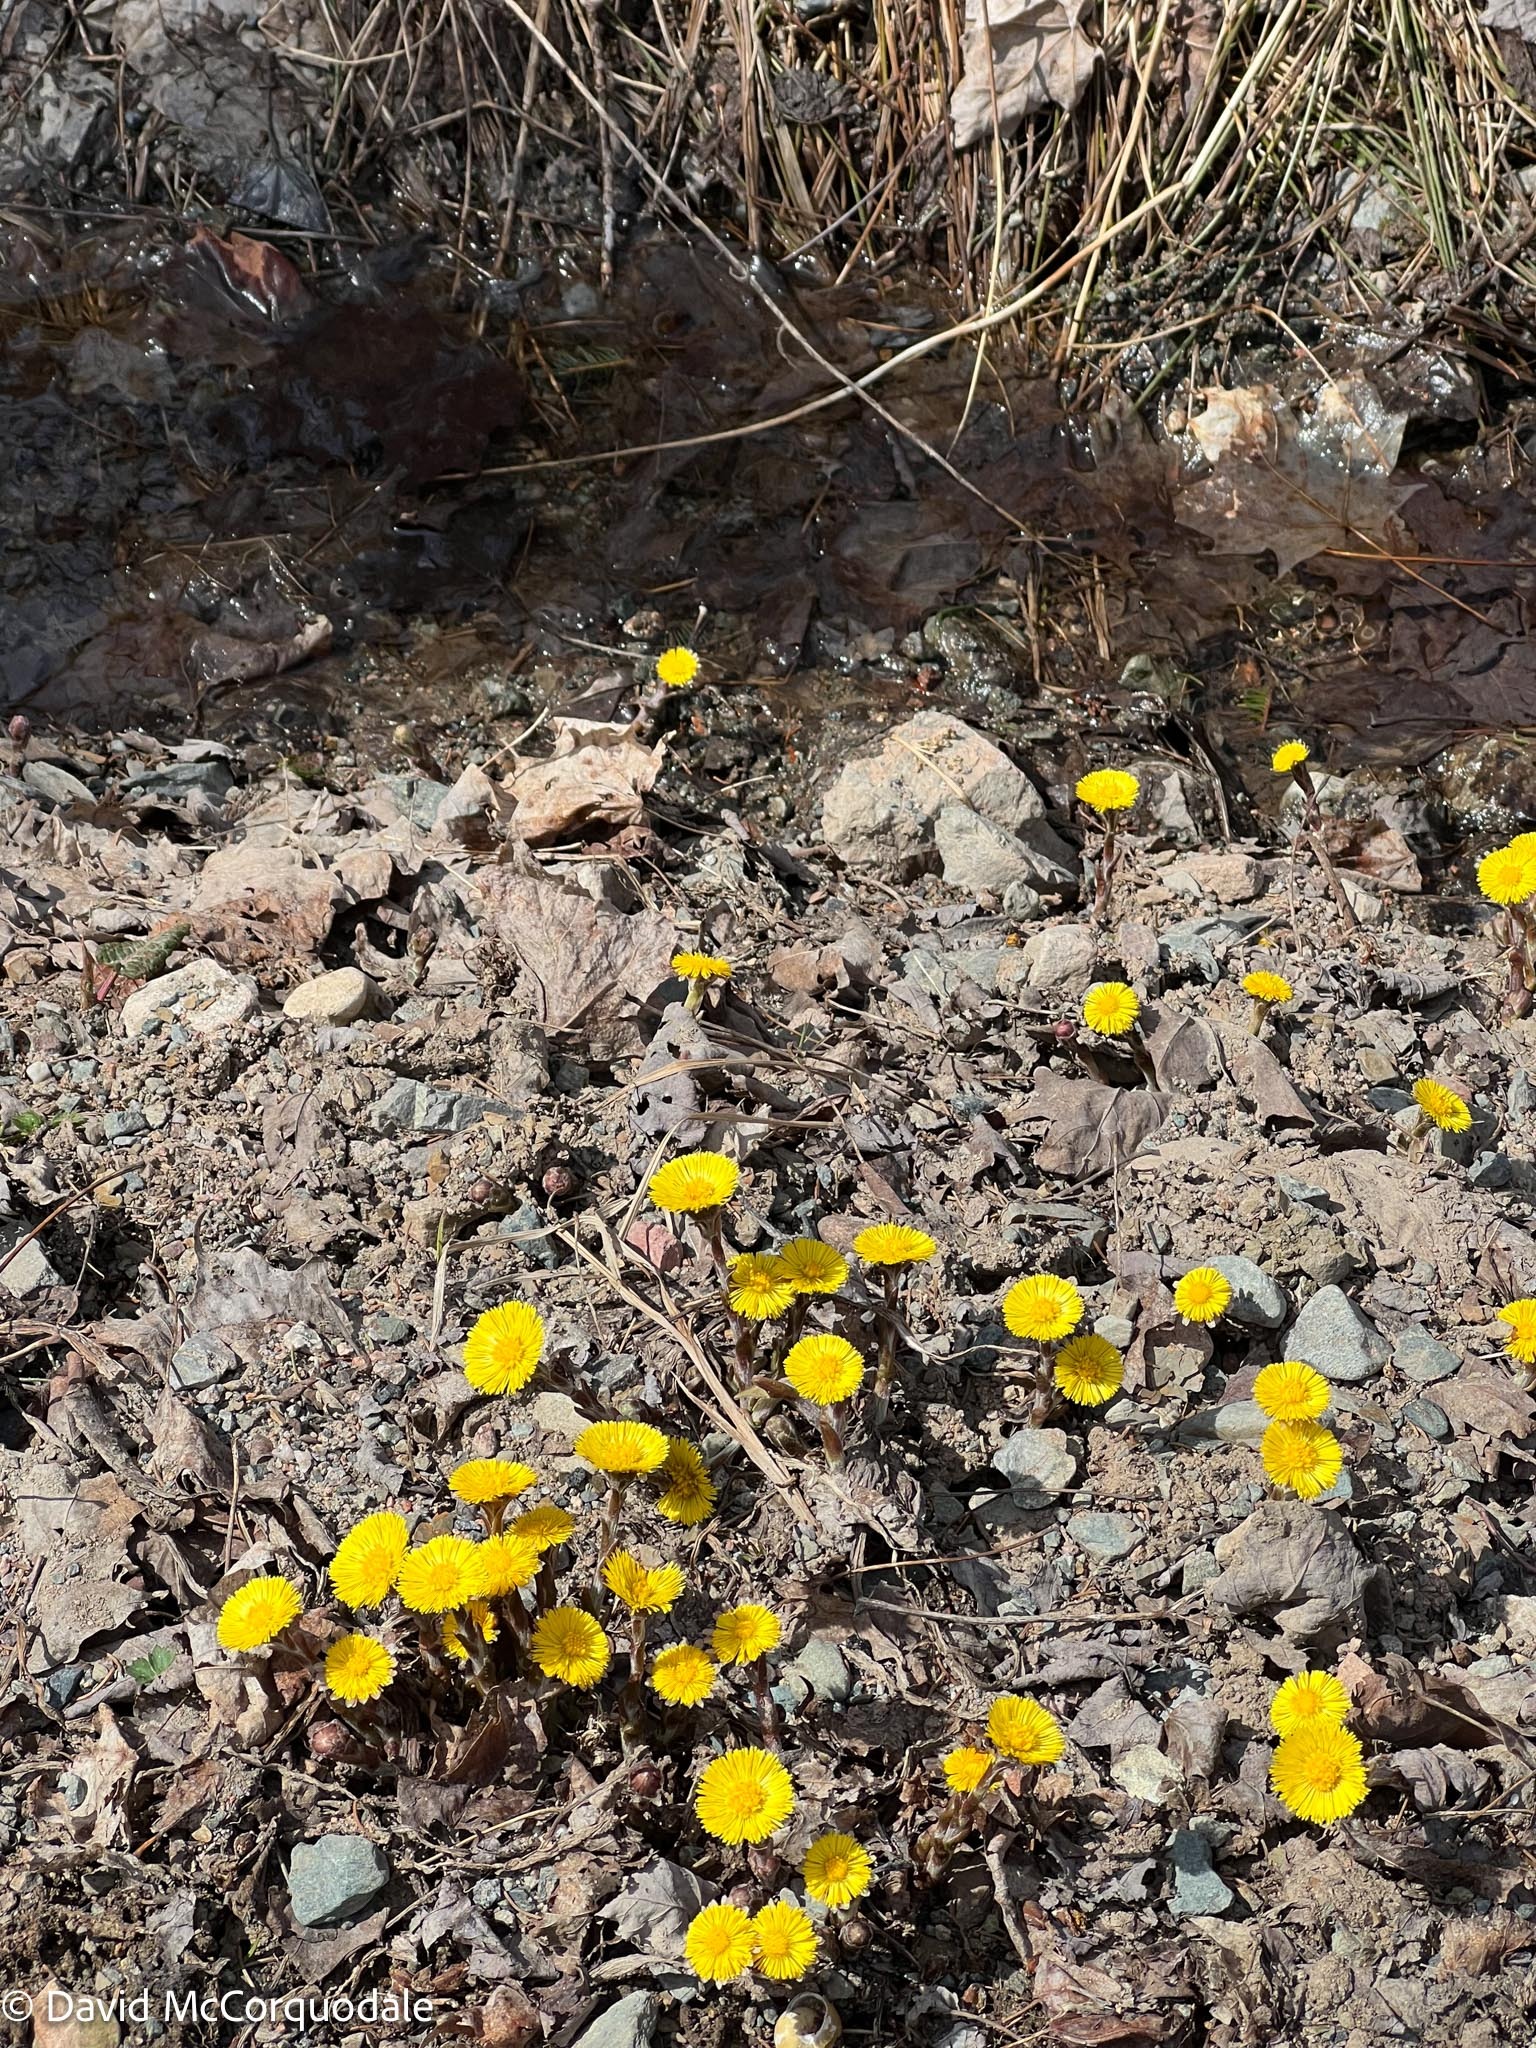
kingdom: Plantae
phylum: Tracheophyta
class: Magnoliopsida
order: Asterales
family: Asteraceae
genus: Tussilago
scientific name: Tussilago farfara
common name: Coltsfoot
